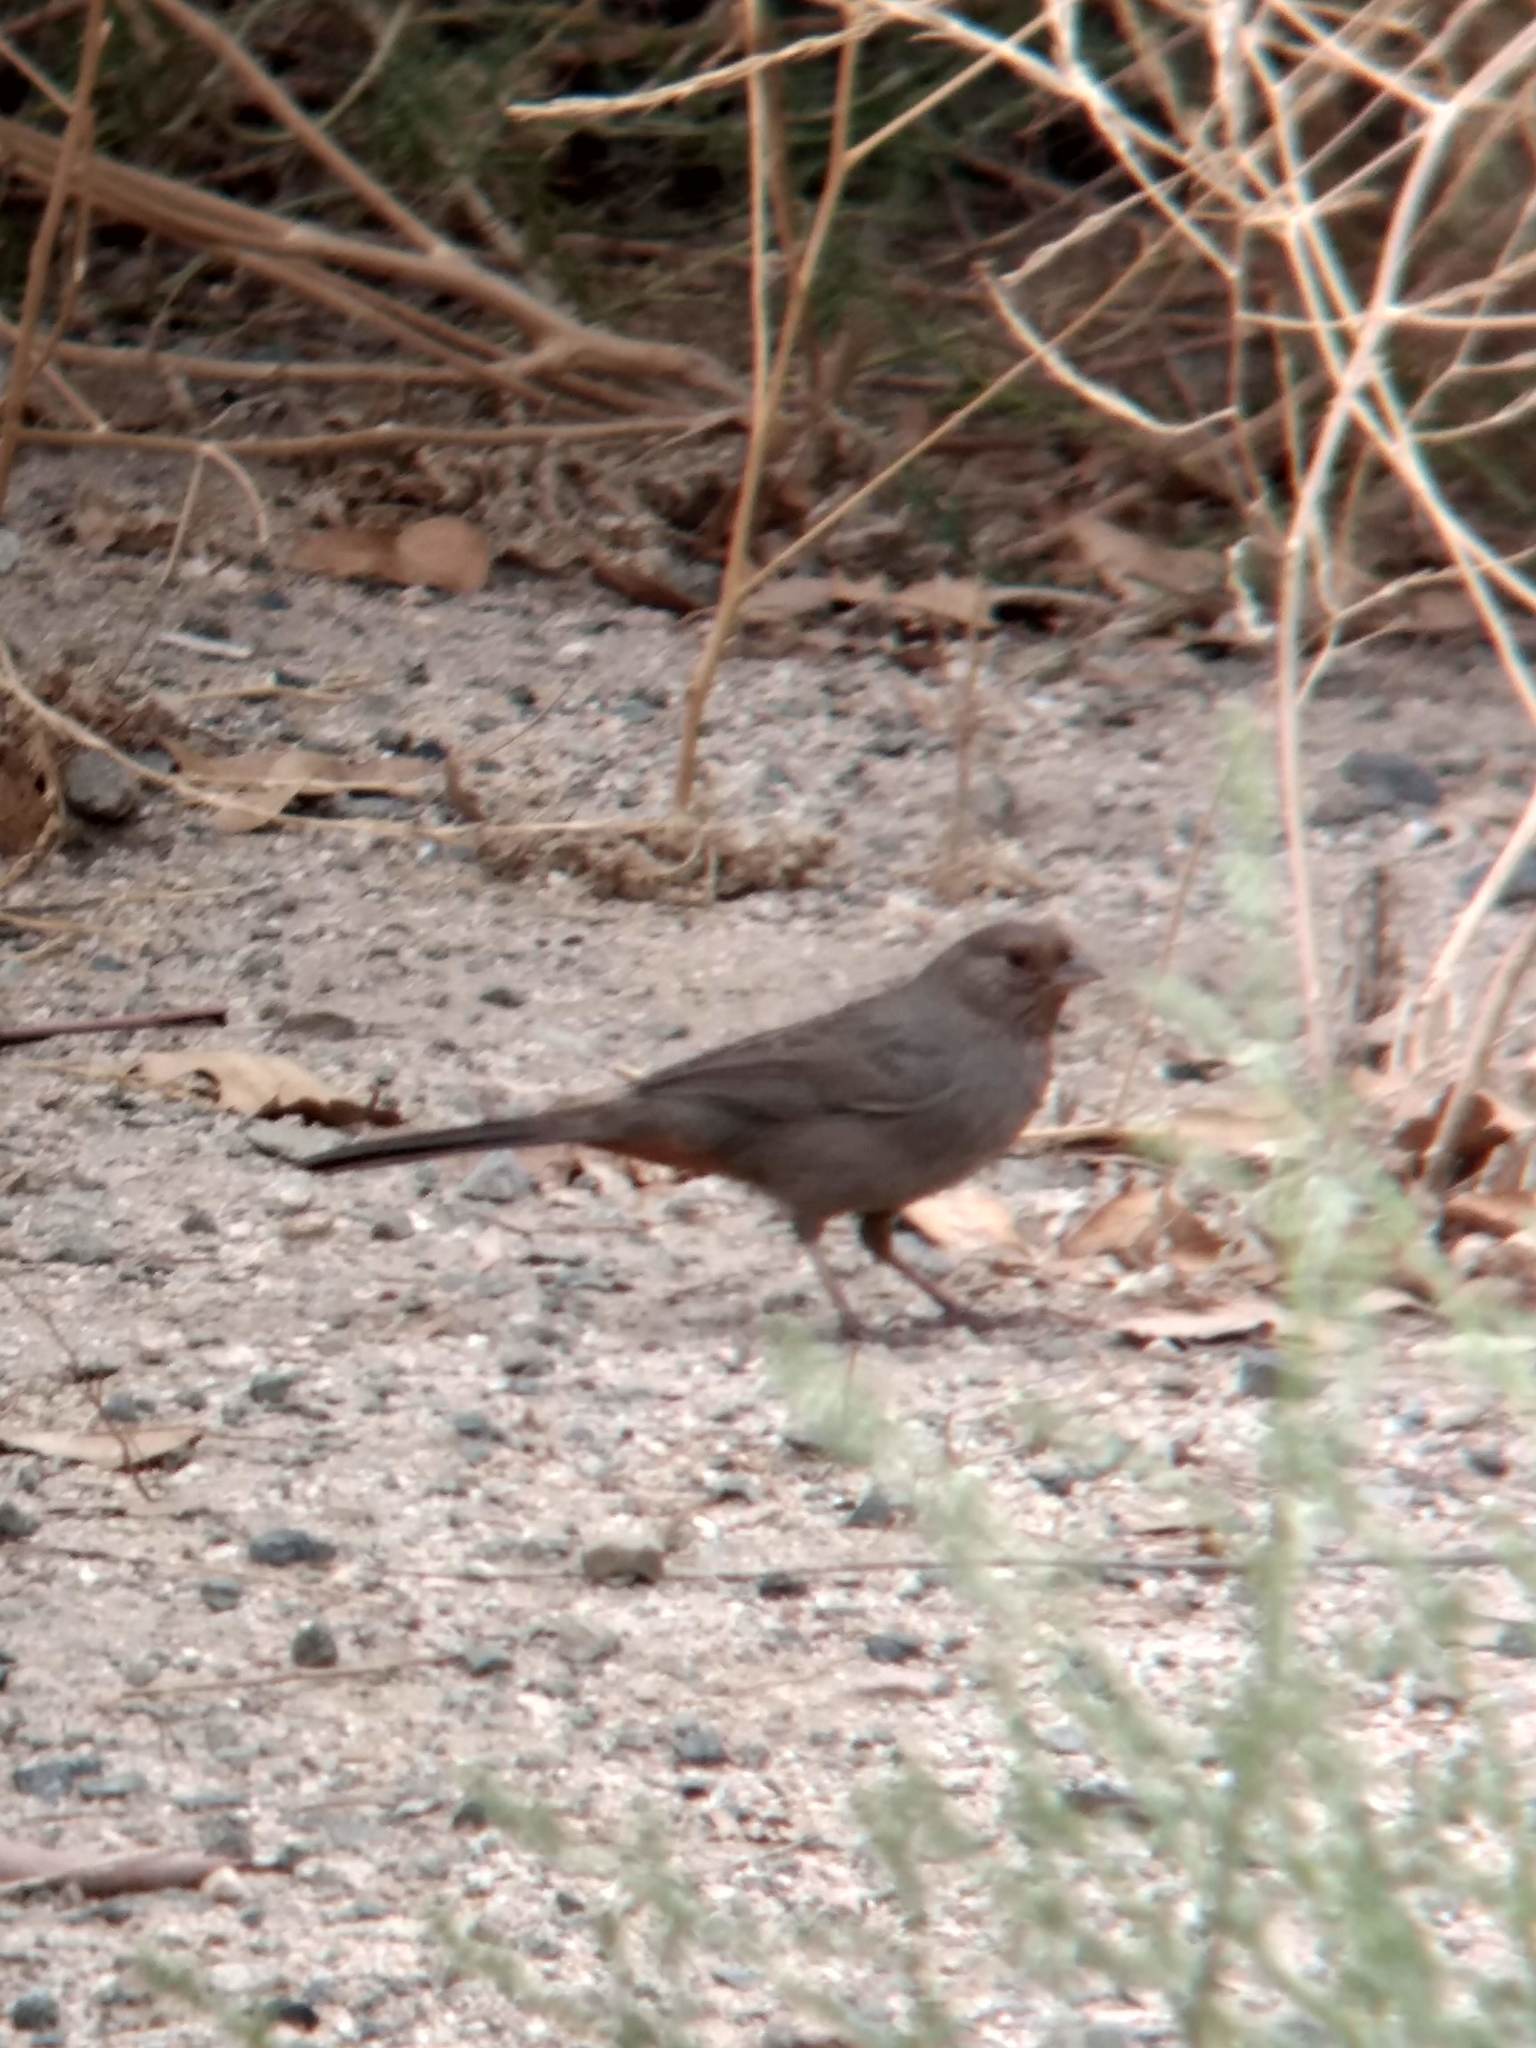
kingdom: Animalia
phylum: Chordata
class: Aves
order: Passeriformes
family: Passerellidae
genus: Melozone
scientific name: Melozone crissalis
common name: California towhee
